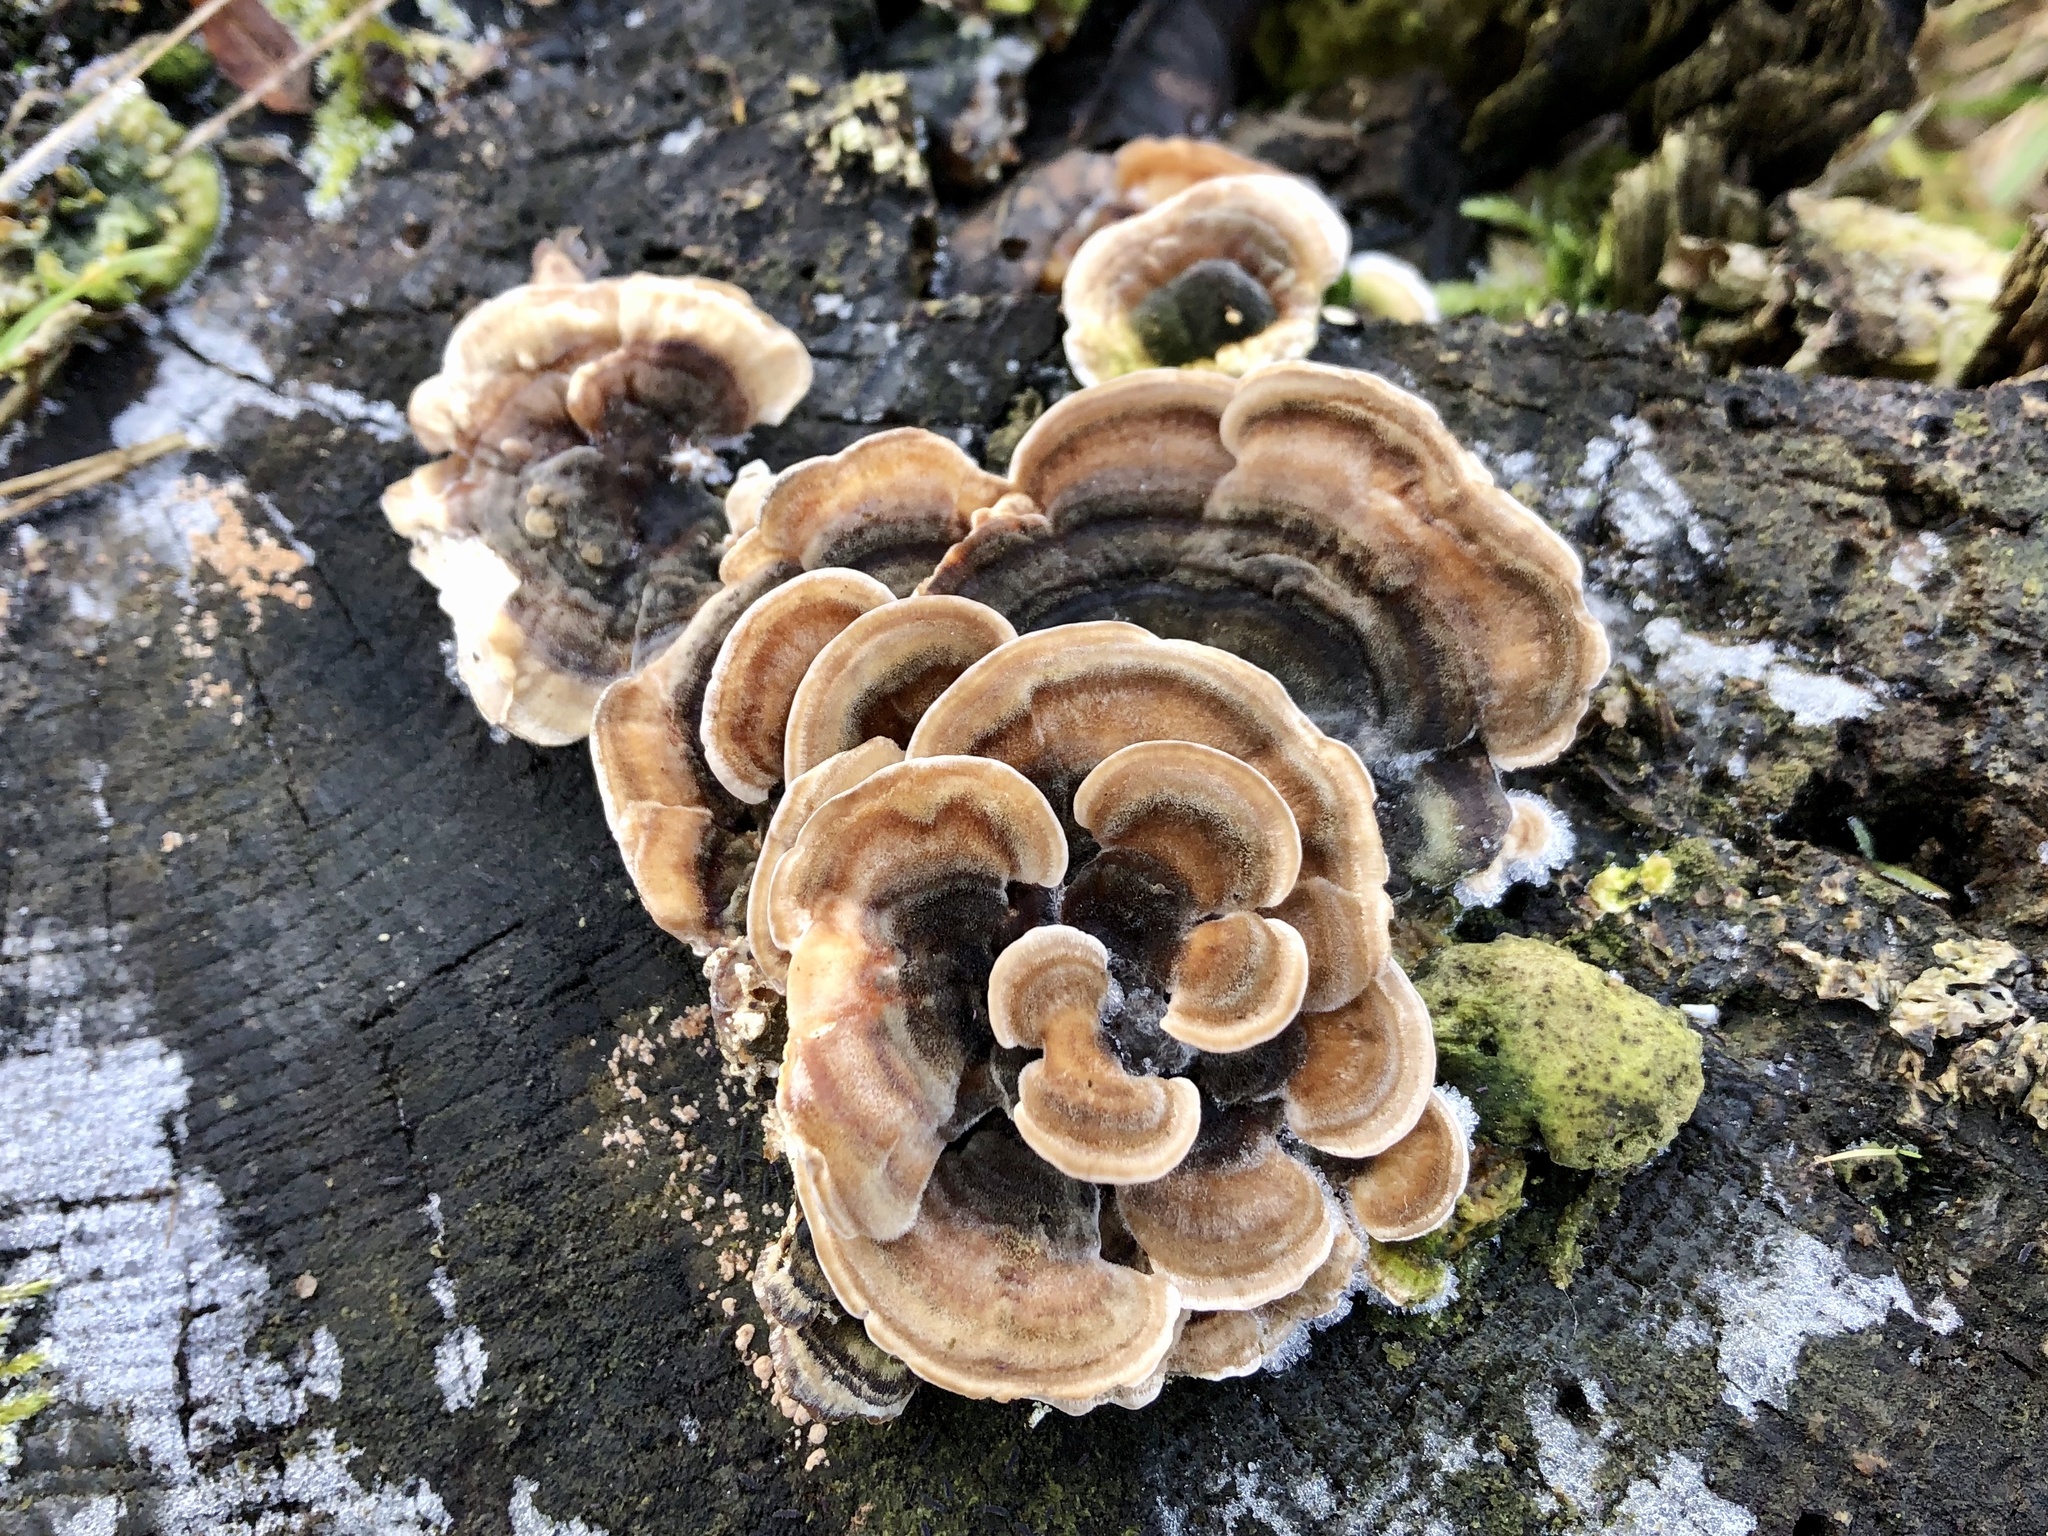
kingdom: Fungi
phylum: Basidiomycota
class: Agaricomycetes
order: Polyporales
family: Polyporaceae
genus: Trametes
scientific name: Trametes versicolor
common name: Turkeytail
